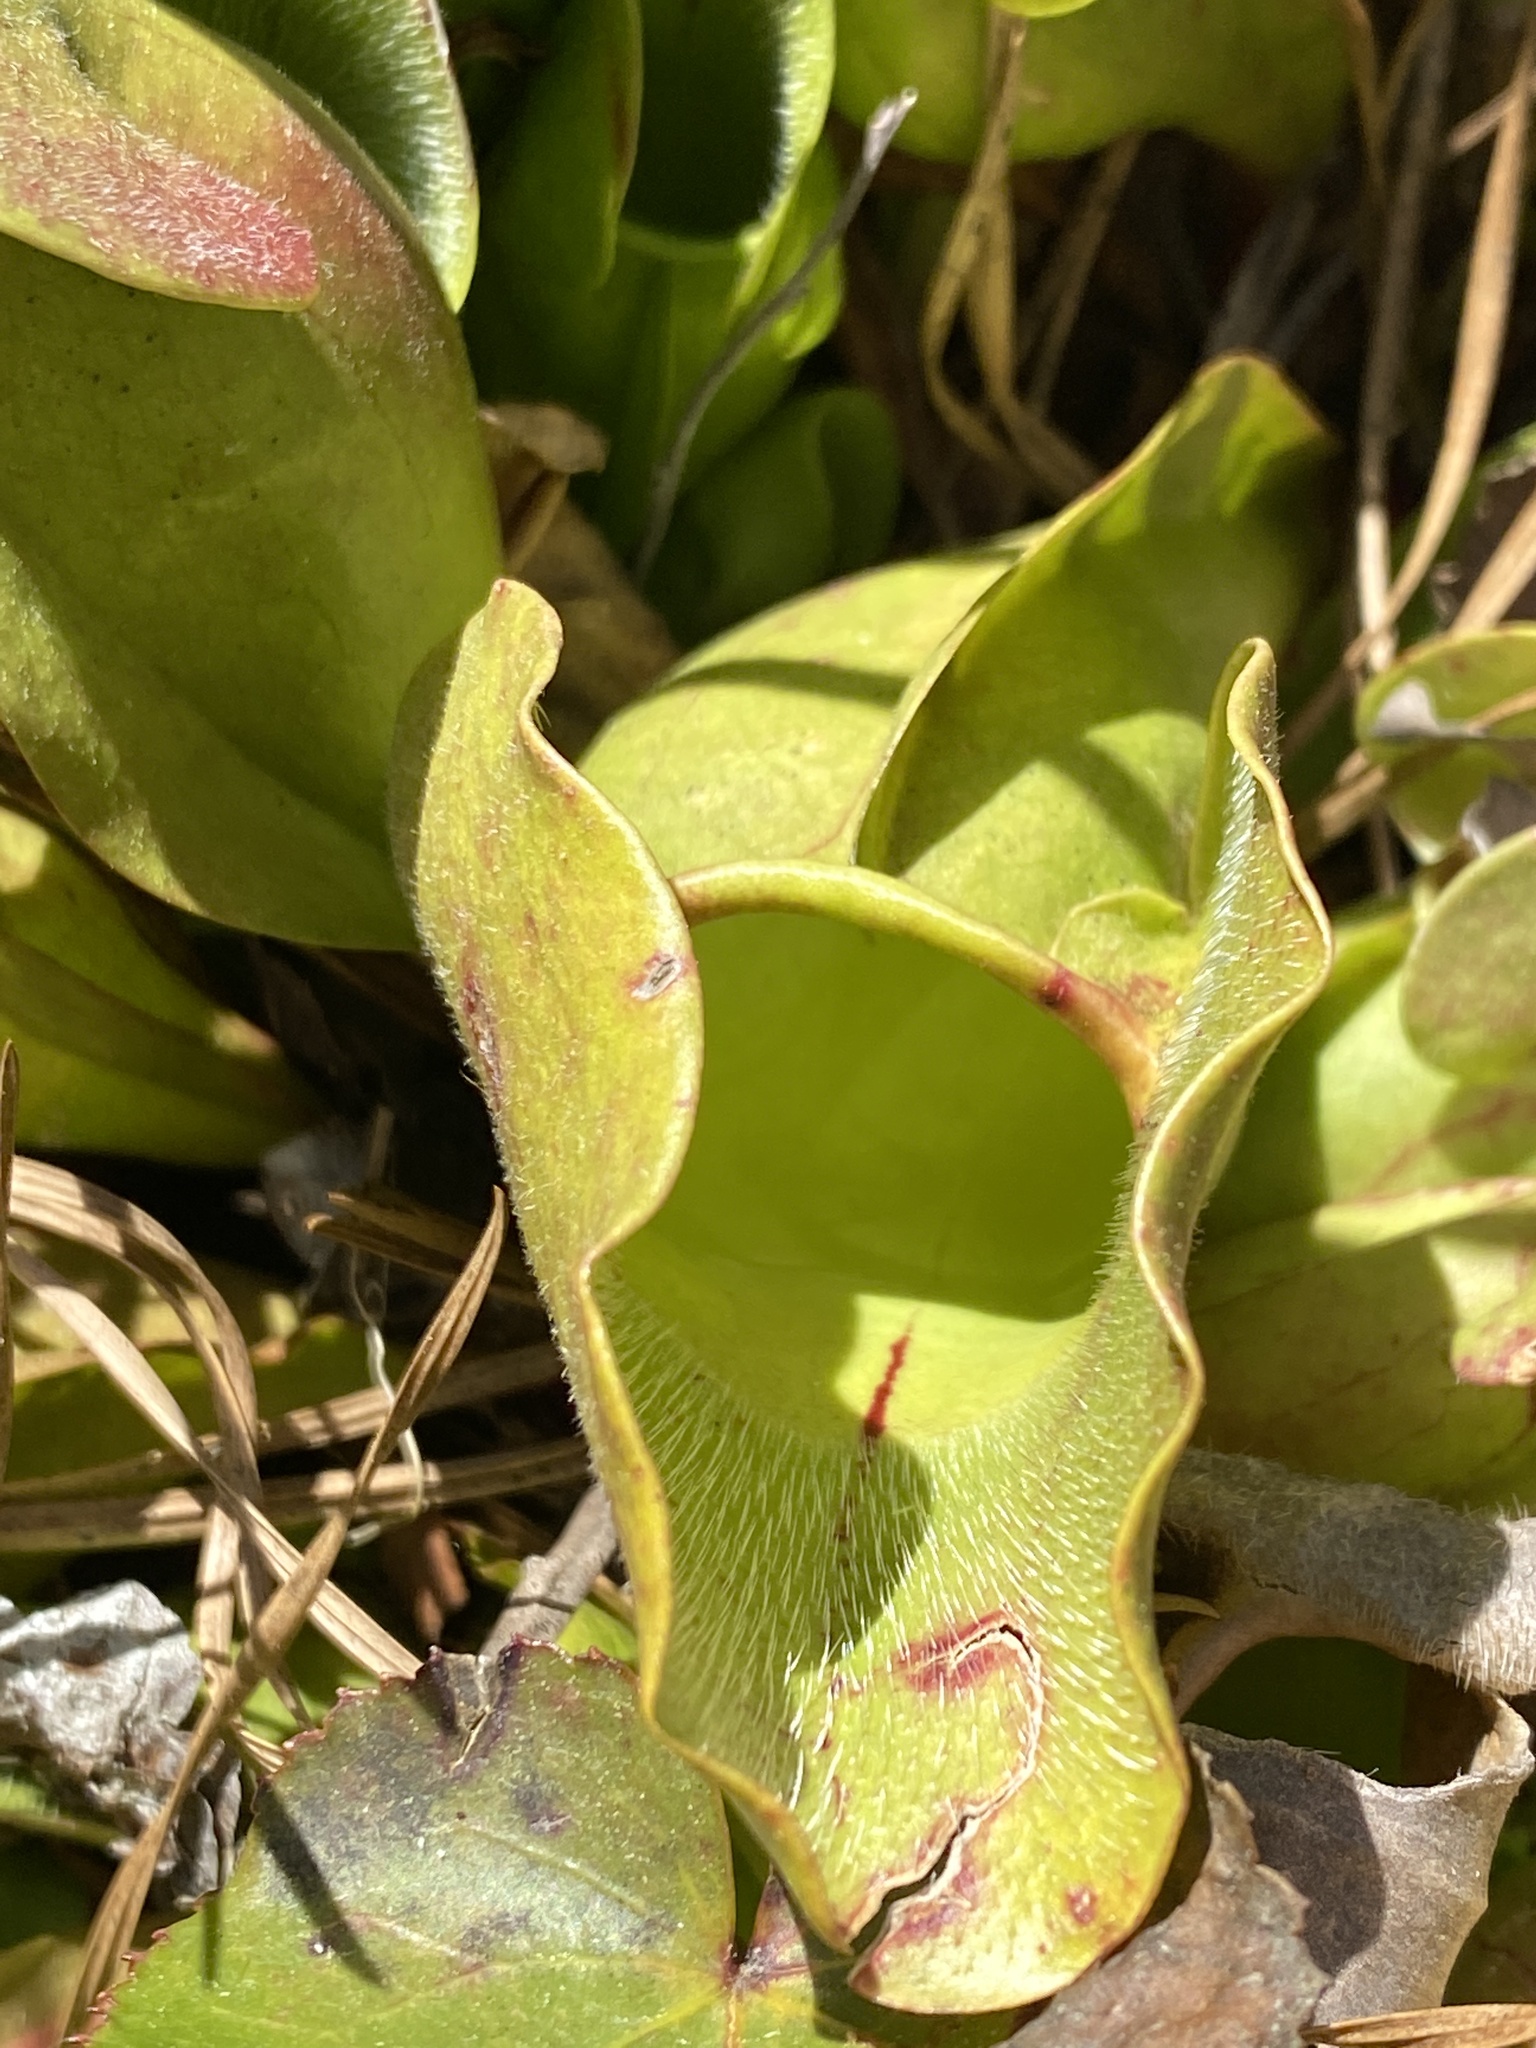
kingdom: Plantae
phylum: Tracheophyta
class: Magnoliopsida
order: Ericales
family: Sarraceniaceae
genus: Sarracenia
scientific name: Sarracenia purpurea
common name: Pitcherplant
